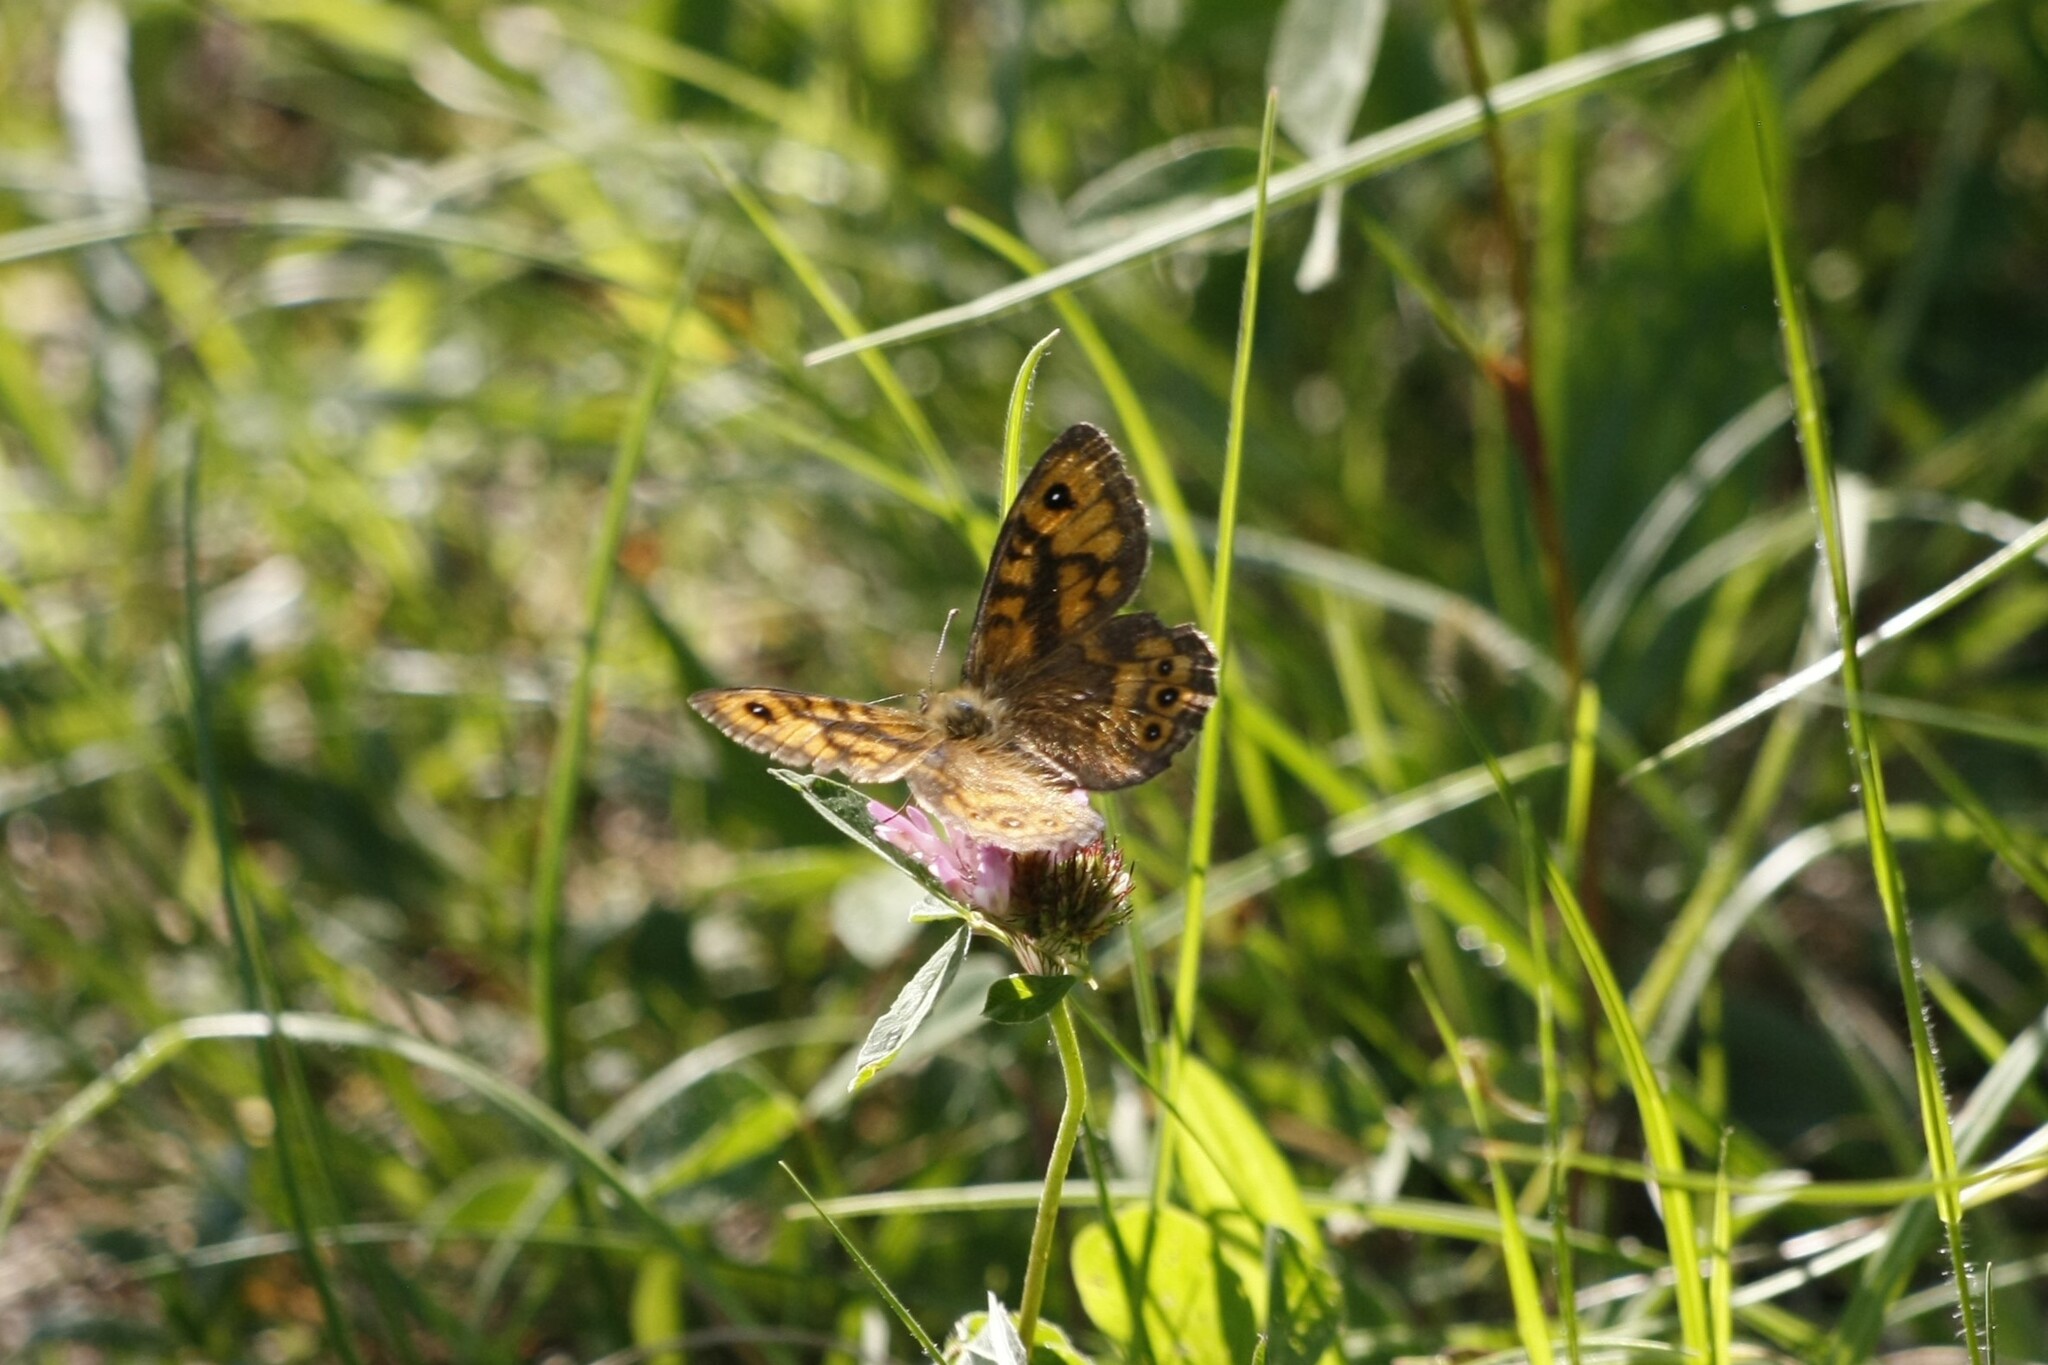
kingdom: Animalia
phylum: Arthropoda
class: Insecta
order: Lepidoptera
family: Nymphalidae
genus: Pararge
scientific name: Pararge Lasiommata megera
